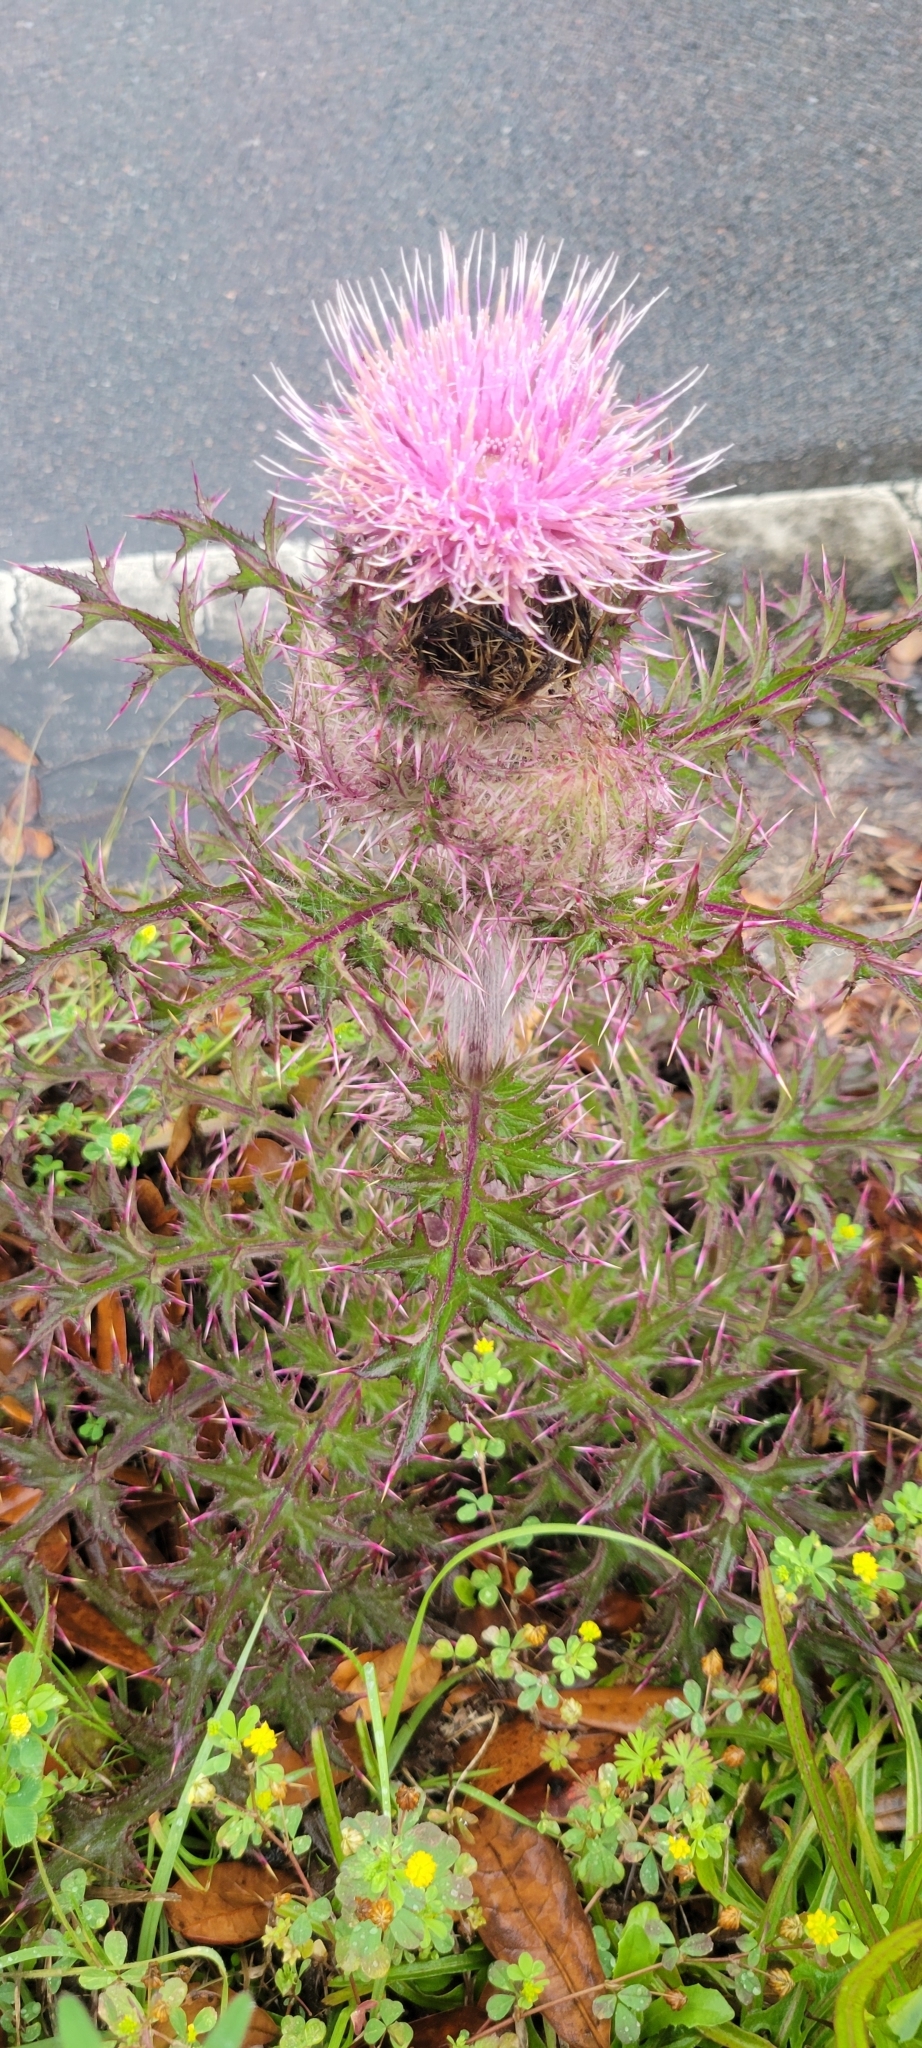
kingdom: Plantae
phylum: Tracheophyta
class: Magnoliopsida
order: Asterales
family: Asteraceae
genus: Cirsium
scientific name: Cirsium horridulum
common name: Bristly thistle
